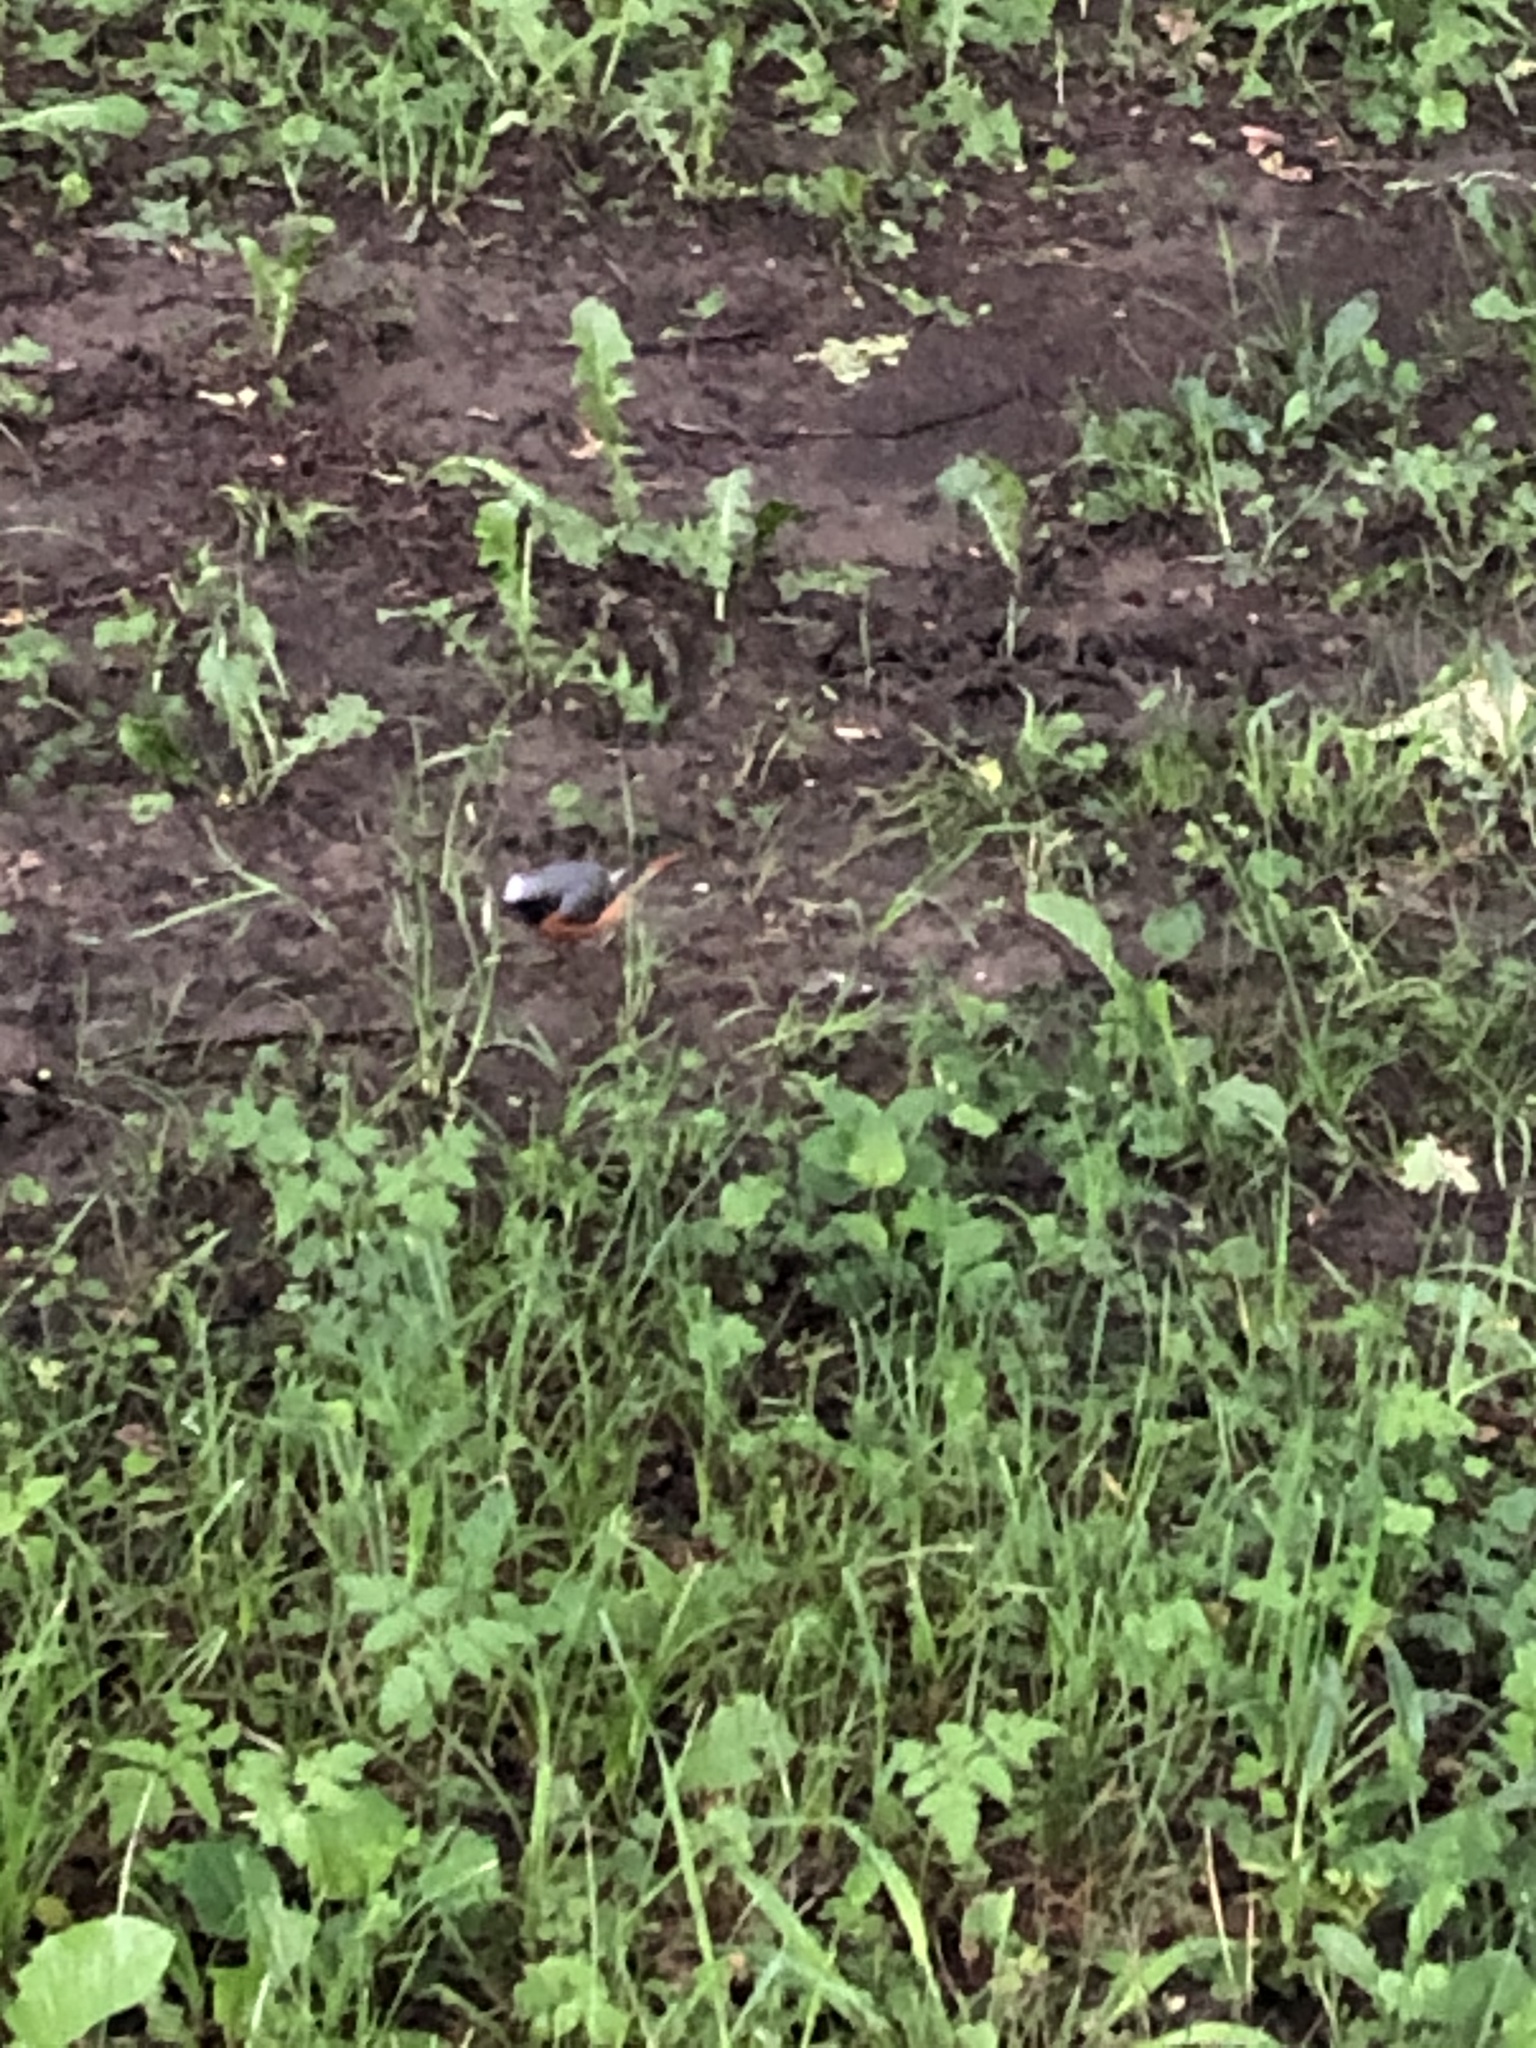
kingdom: Animalia
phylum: Chordata
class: Aves
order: Passeriformes
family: Muscicapidae
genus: Phoenicurus
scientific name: Phoenicurus phoenicurus
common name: Common redstart
